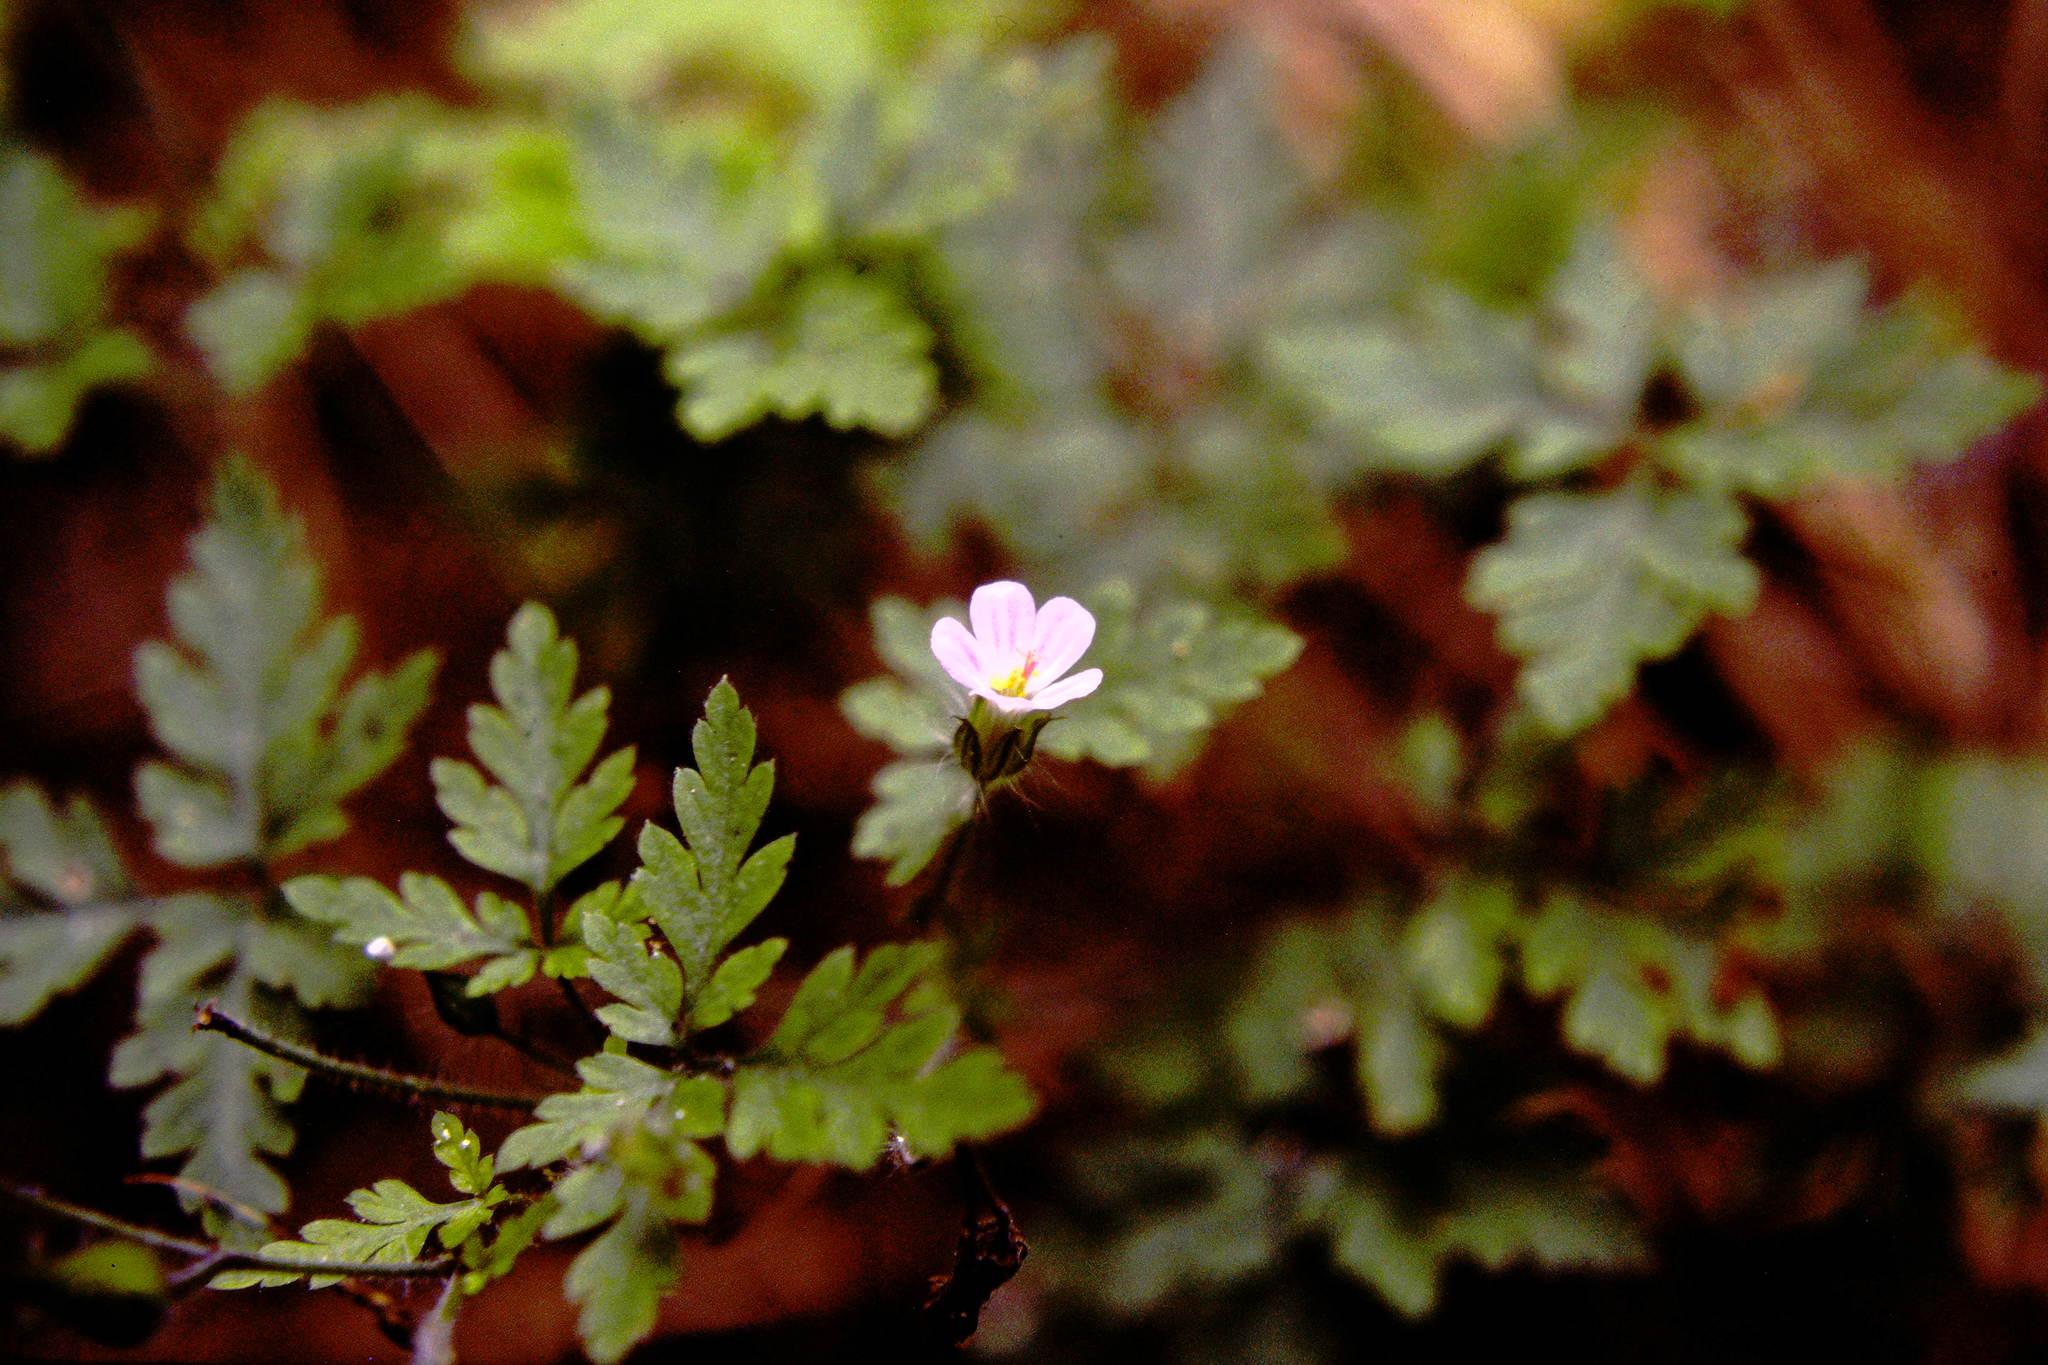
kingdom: Plantae
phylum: Tracheophyta
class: Magnoliopsida
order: Geraniales
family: Geraniaceae
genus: Geranium
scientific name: Geranium robertianum
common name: Herb-robert
